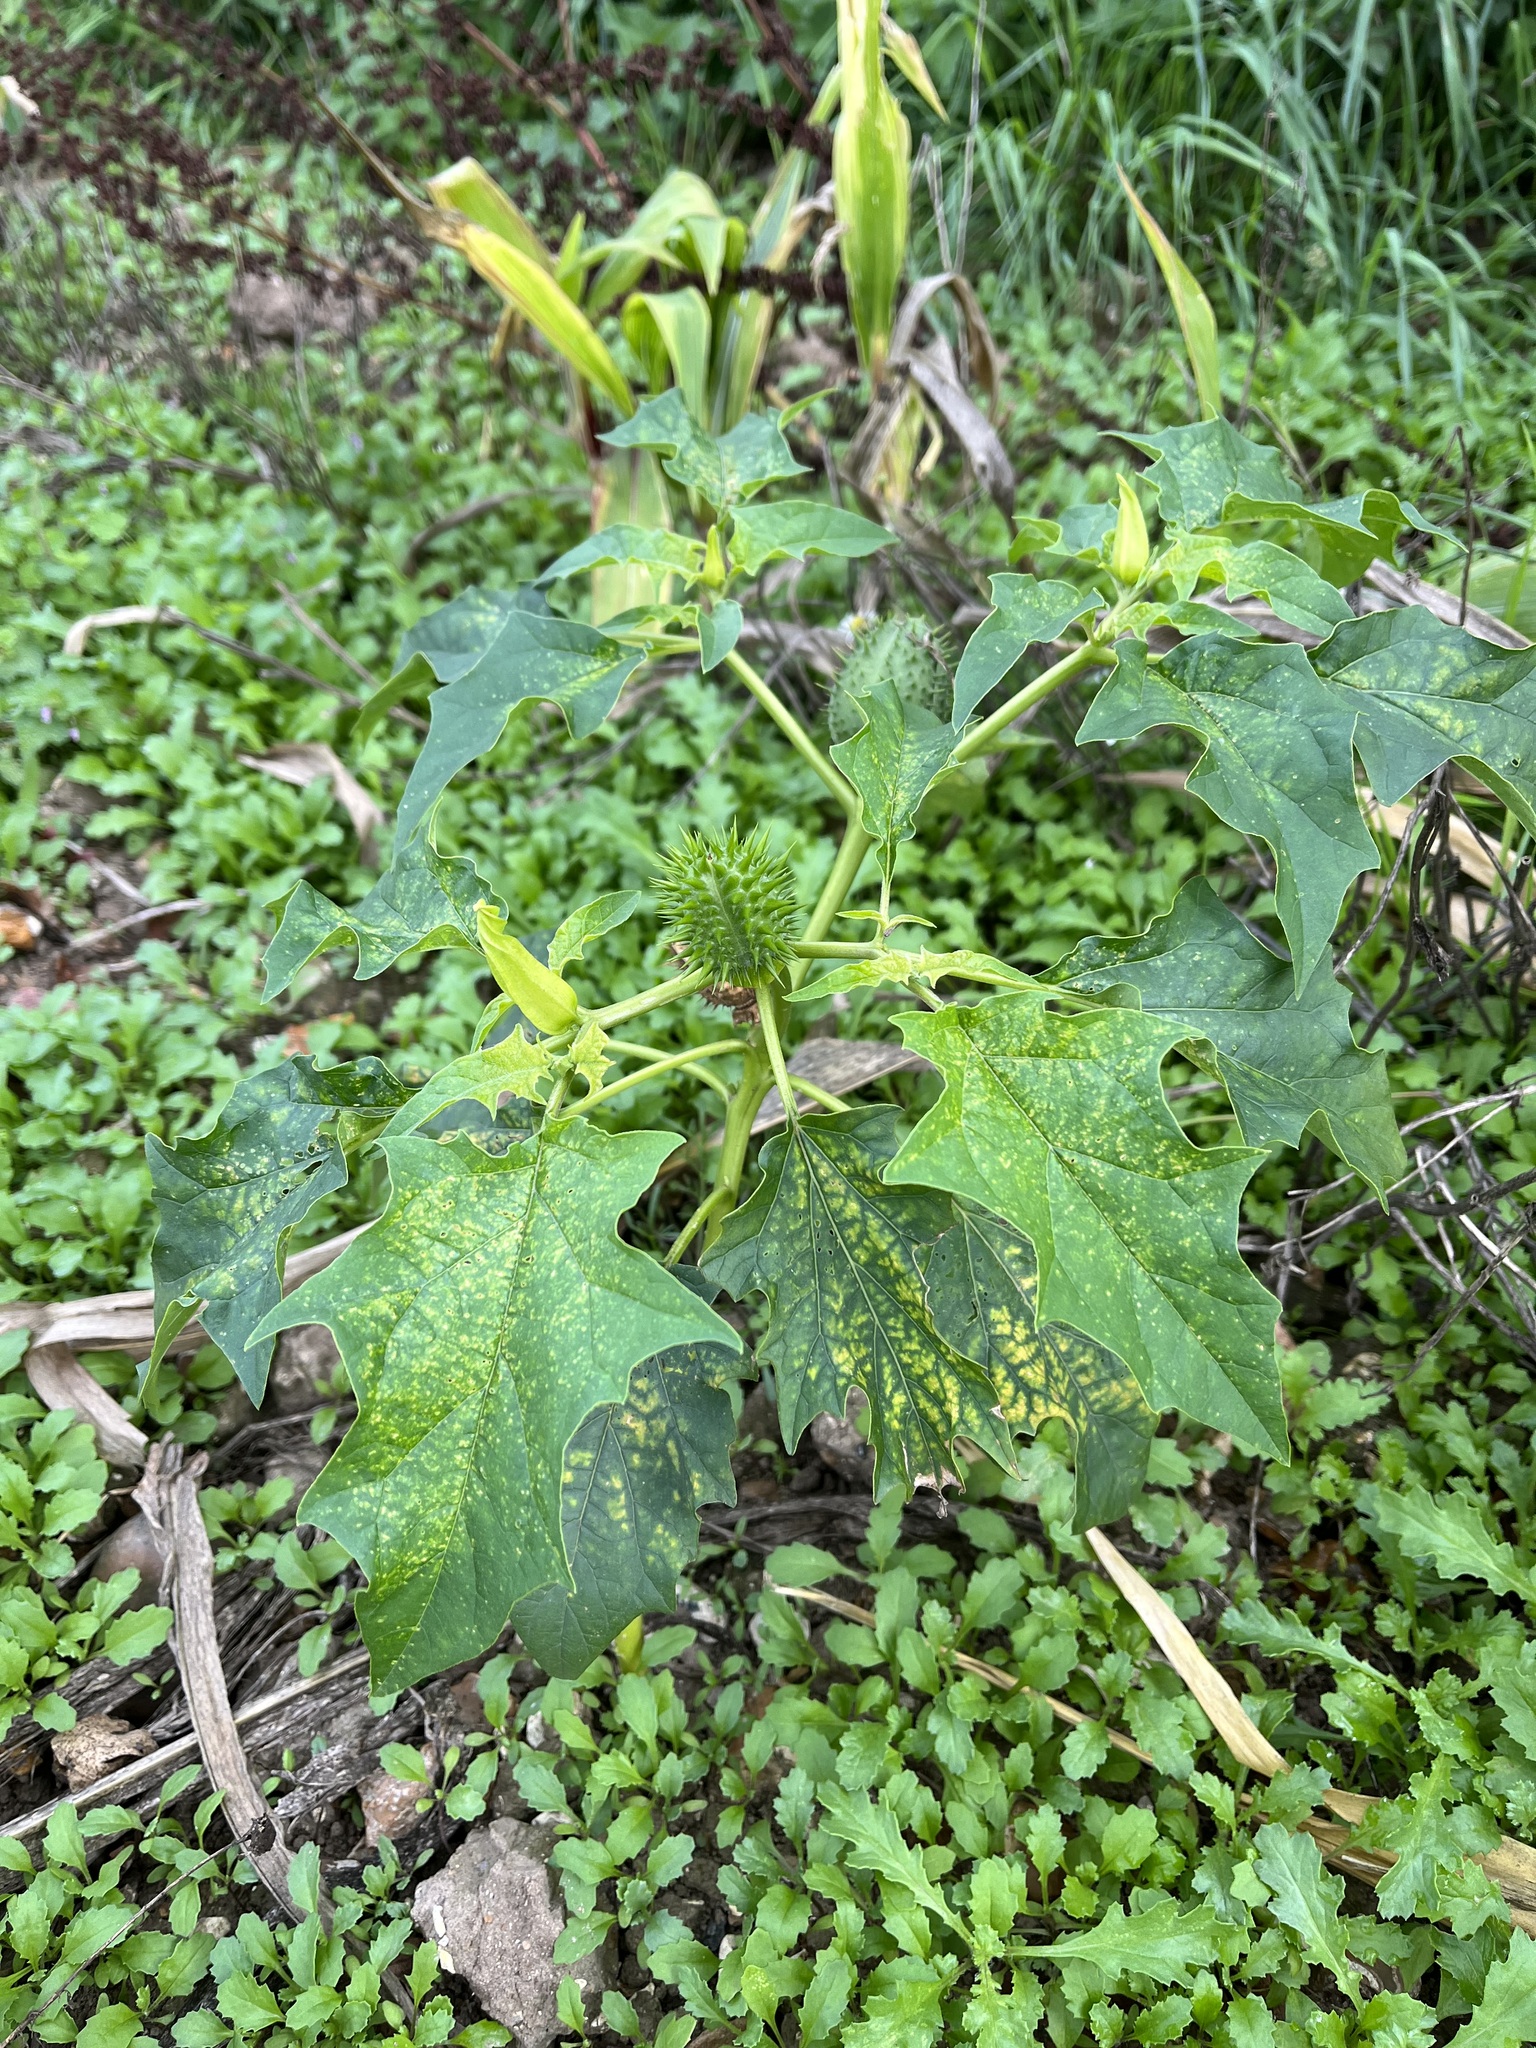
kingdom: Plantae
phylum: Tracheophyta
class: Magnoliopsida
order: Solanales
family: Solanaceae
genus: Datura
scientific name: Datura stramonium
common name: Thorn-apple
